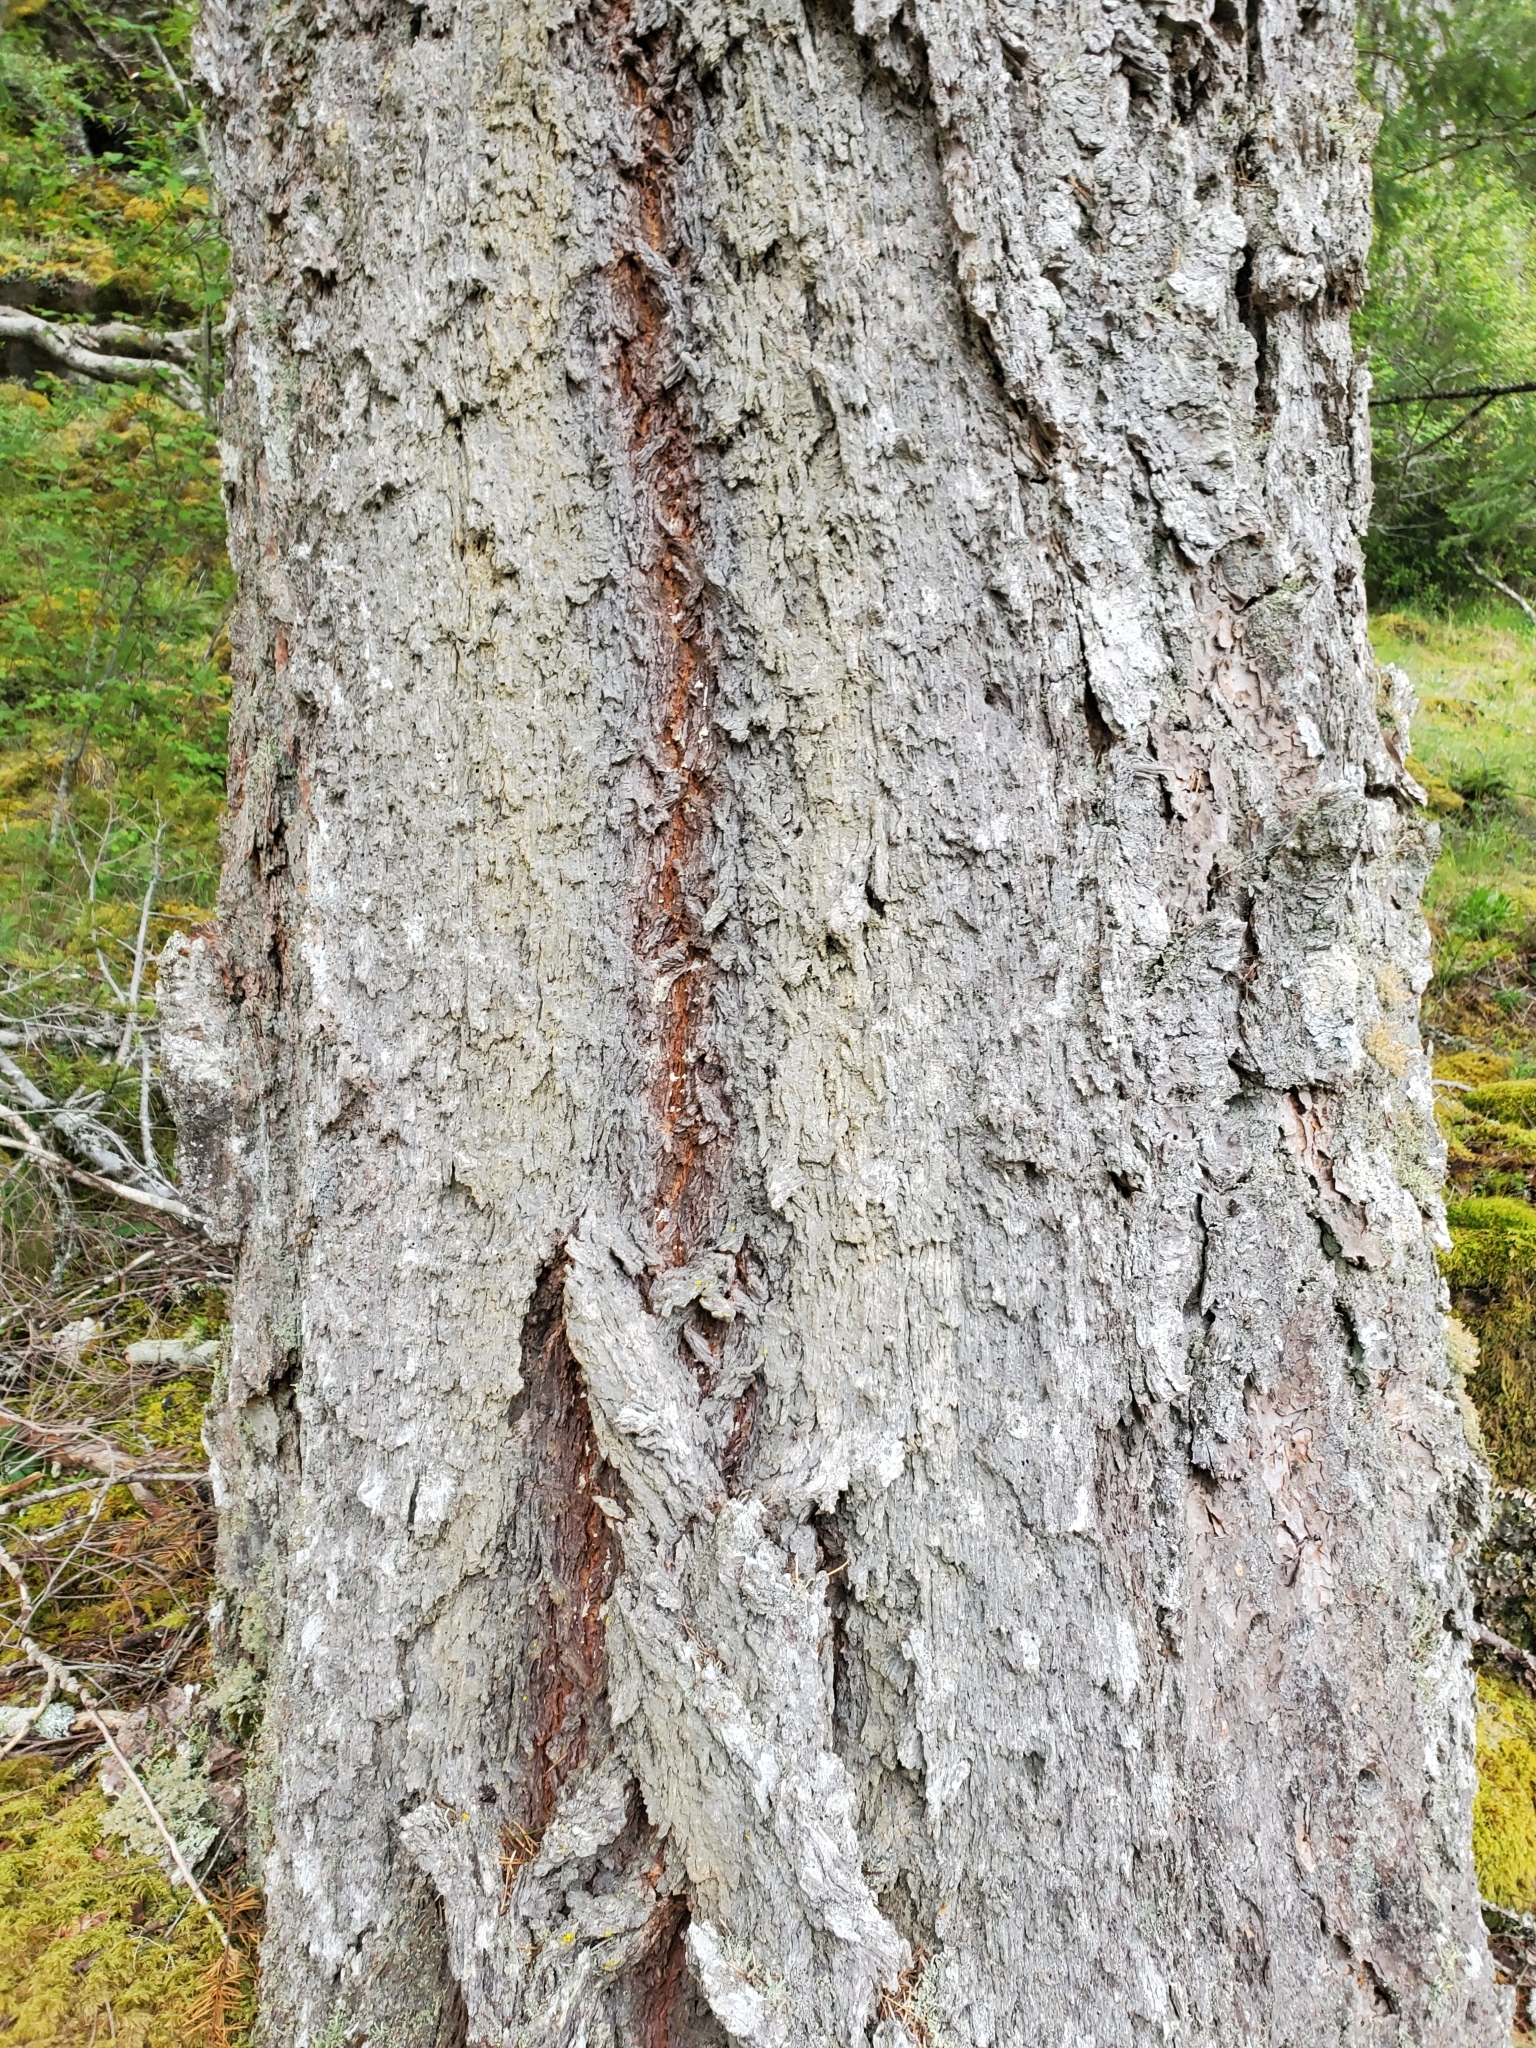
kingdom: Plantae
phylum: Tracheophyta
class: Pinopsida
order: Pinales
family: Pinaceae
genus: Pseudotsuga
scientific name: Pseudotsuga menziesii
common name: Douglas fir
